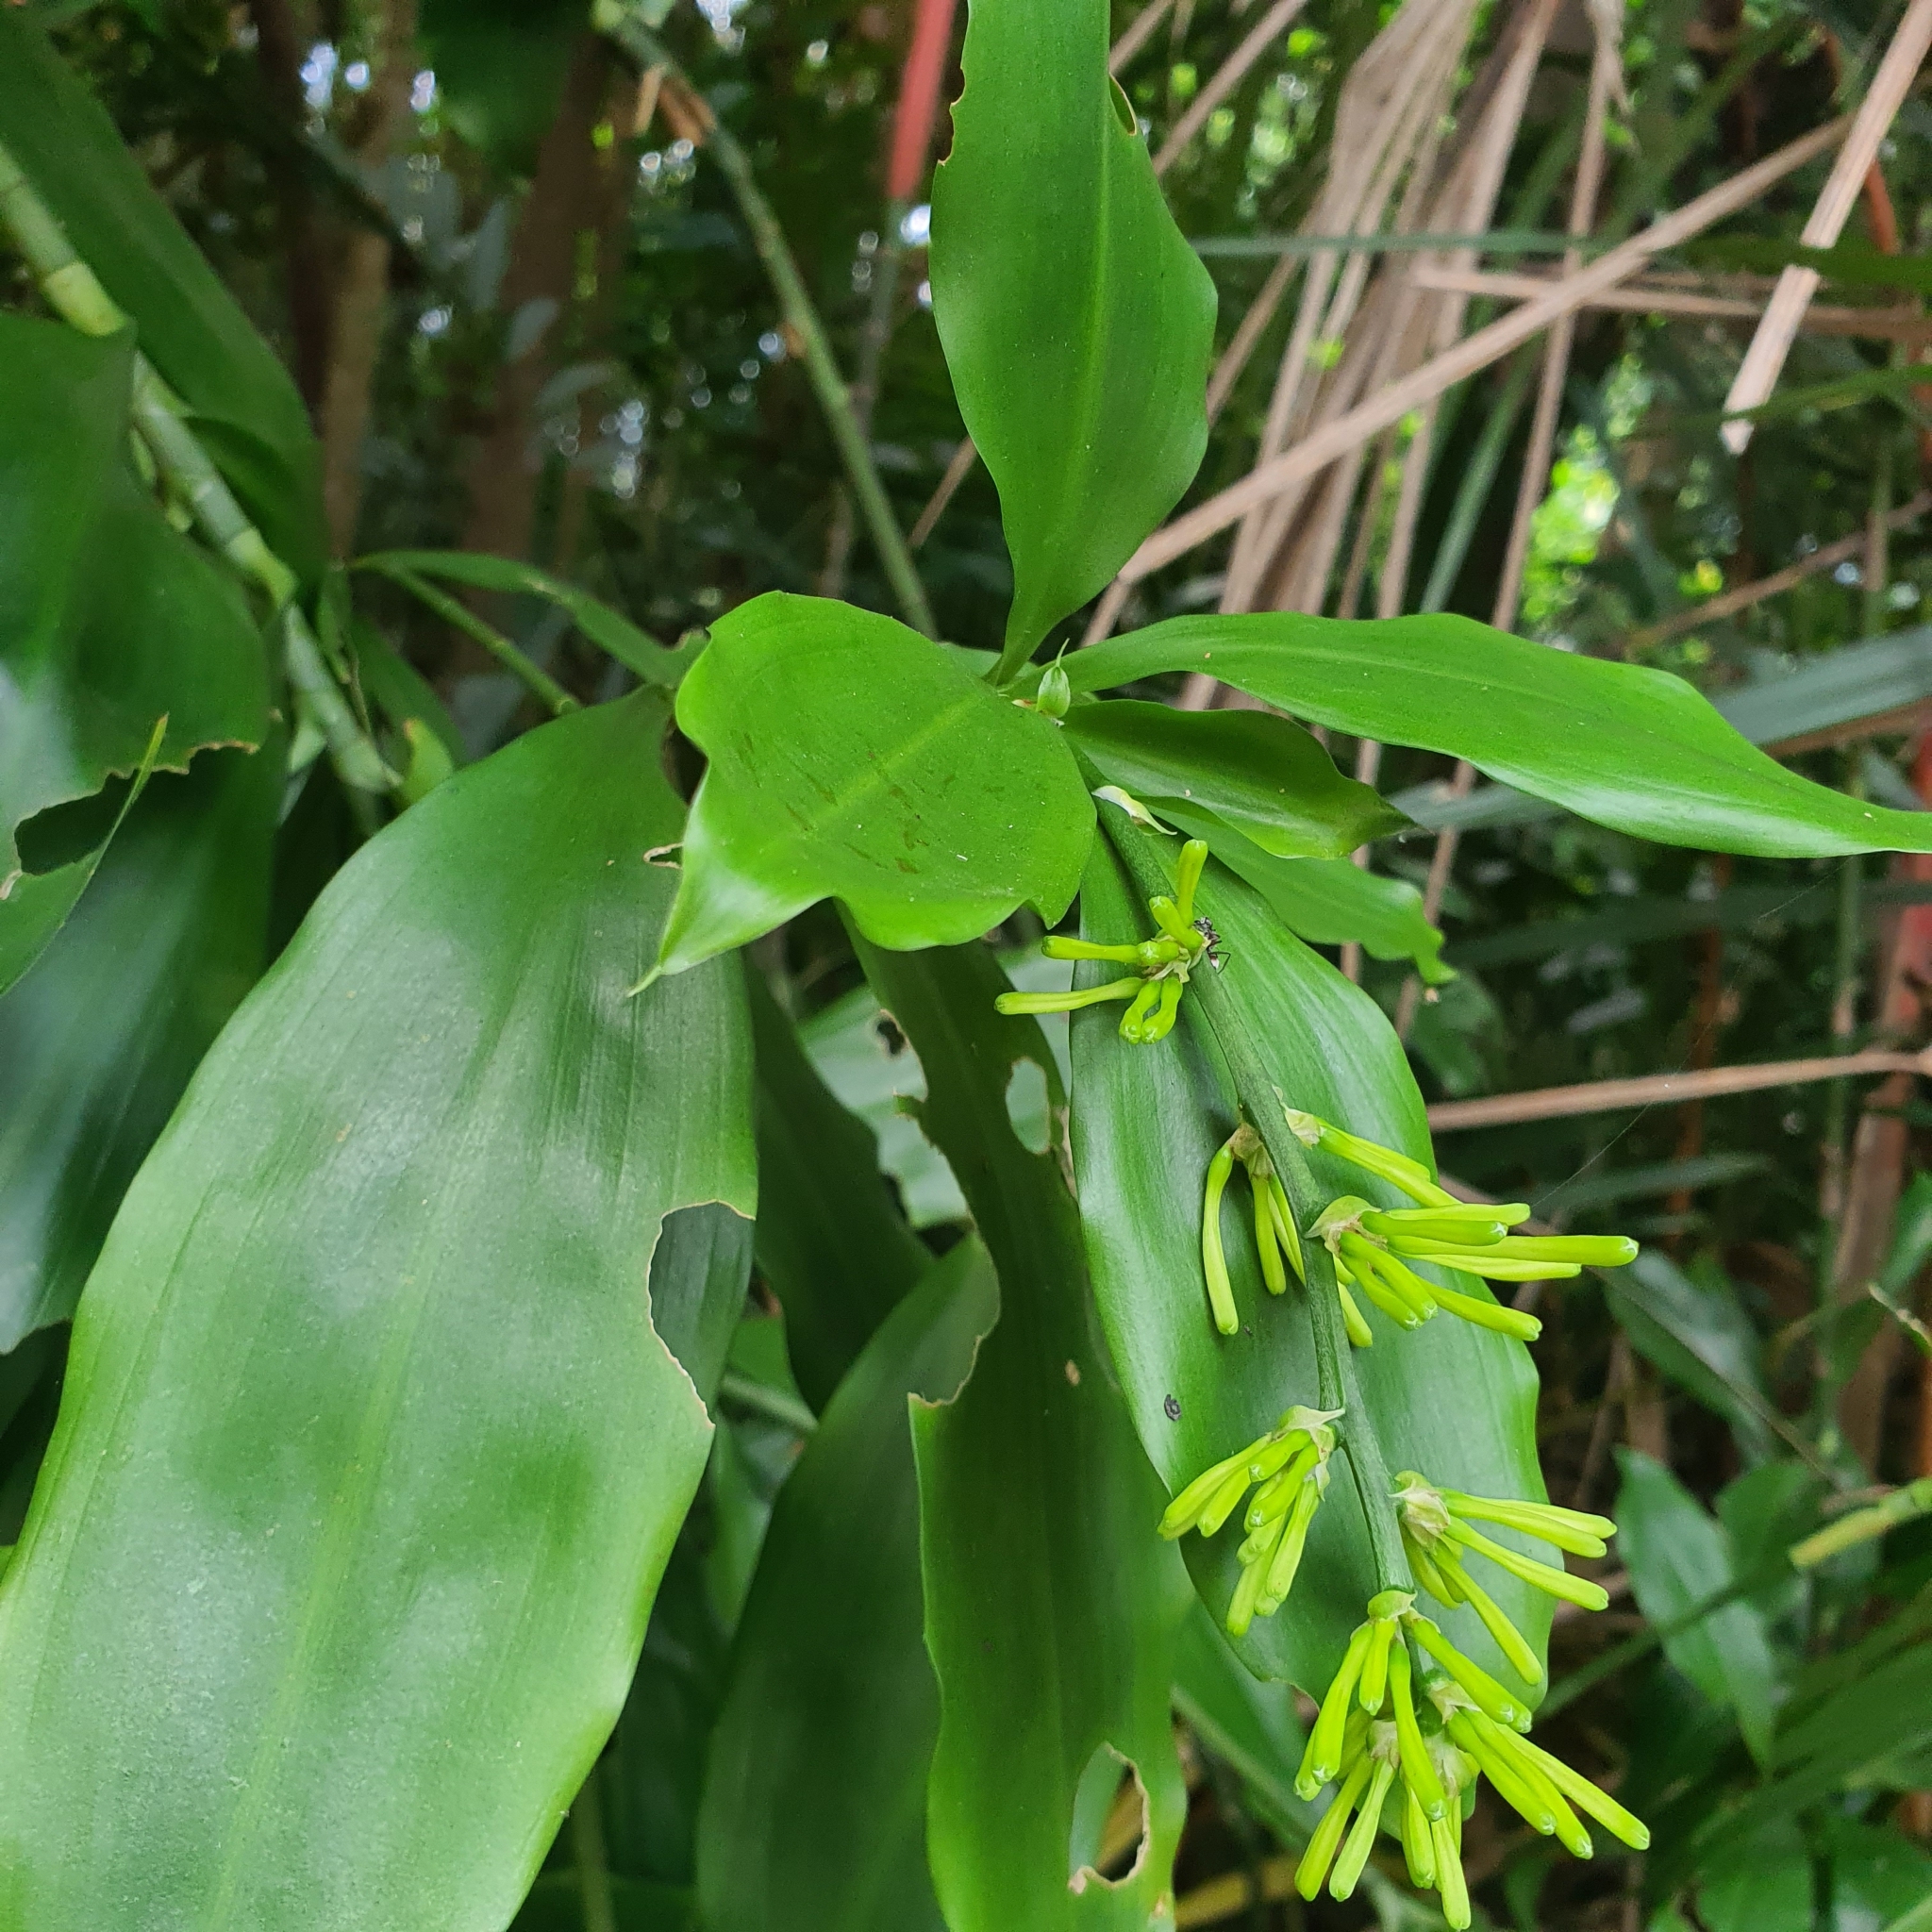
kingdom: Plantae
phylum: Tracheophyta
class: Liliopsida
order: Asparagales
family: Asparagaceae
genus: Dracaena
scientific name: Dracaena umbratica
